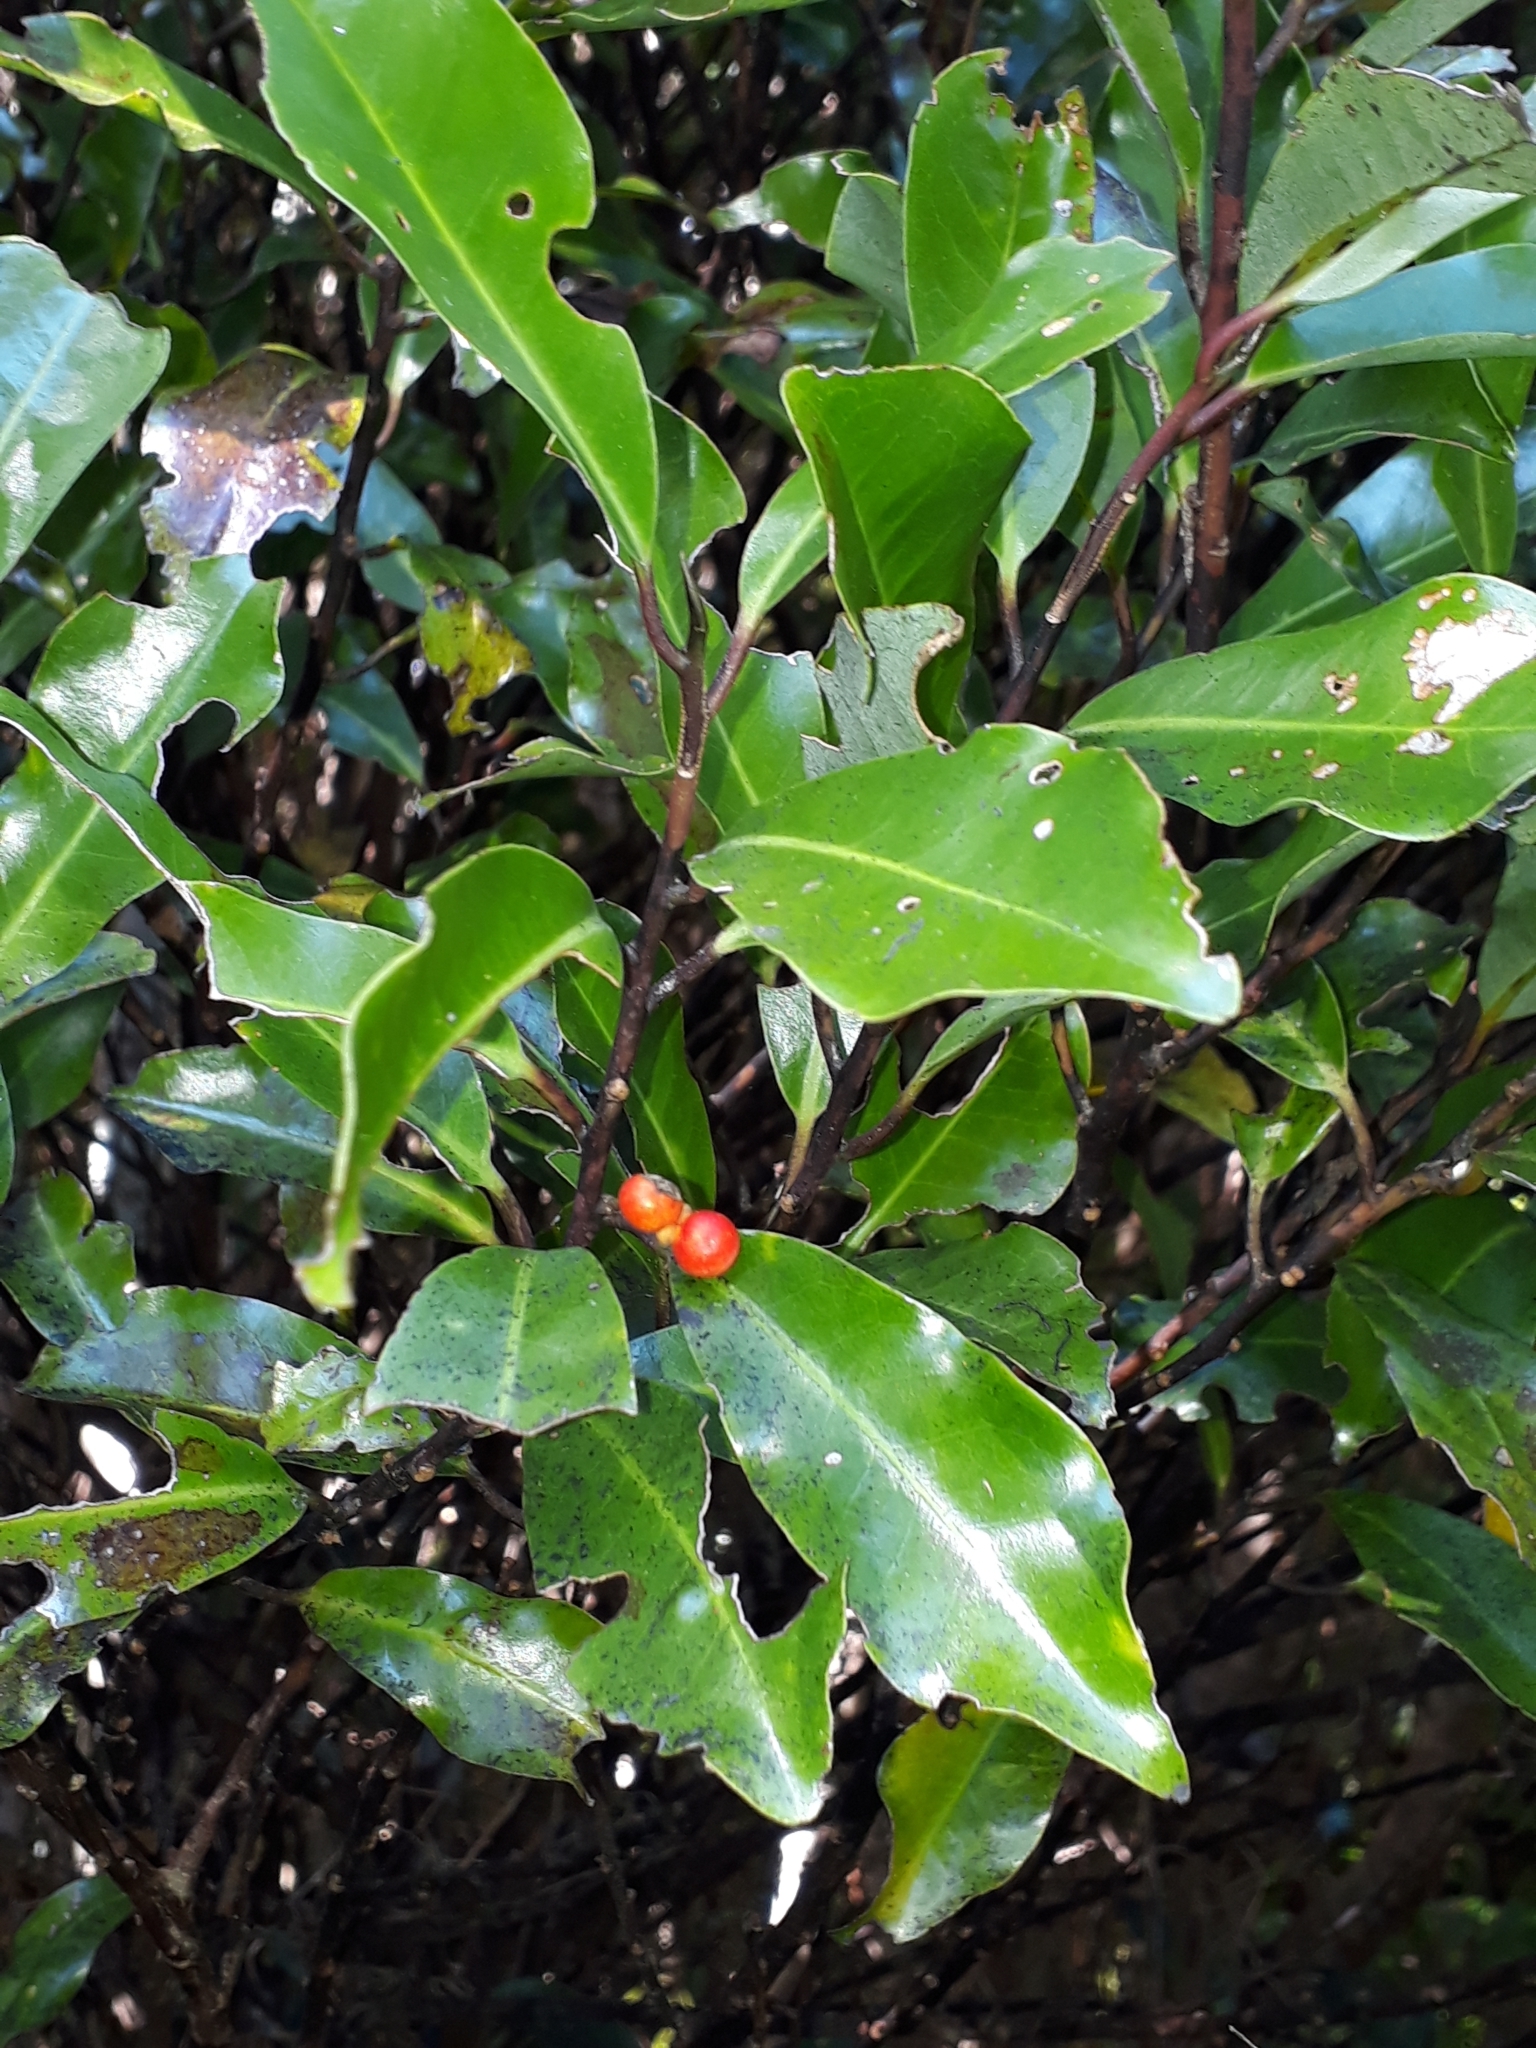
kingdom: Plantae
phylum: Tracheophyta
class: Magnoliopsida
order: Canellales
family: Winteraceae
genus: Pseudowintera
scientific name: Pseudowintera axillaris
